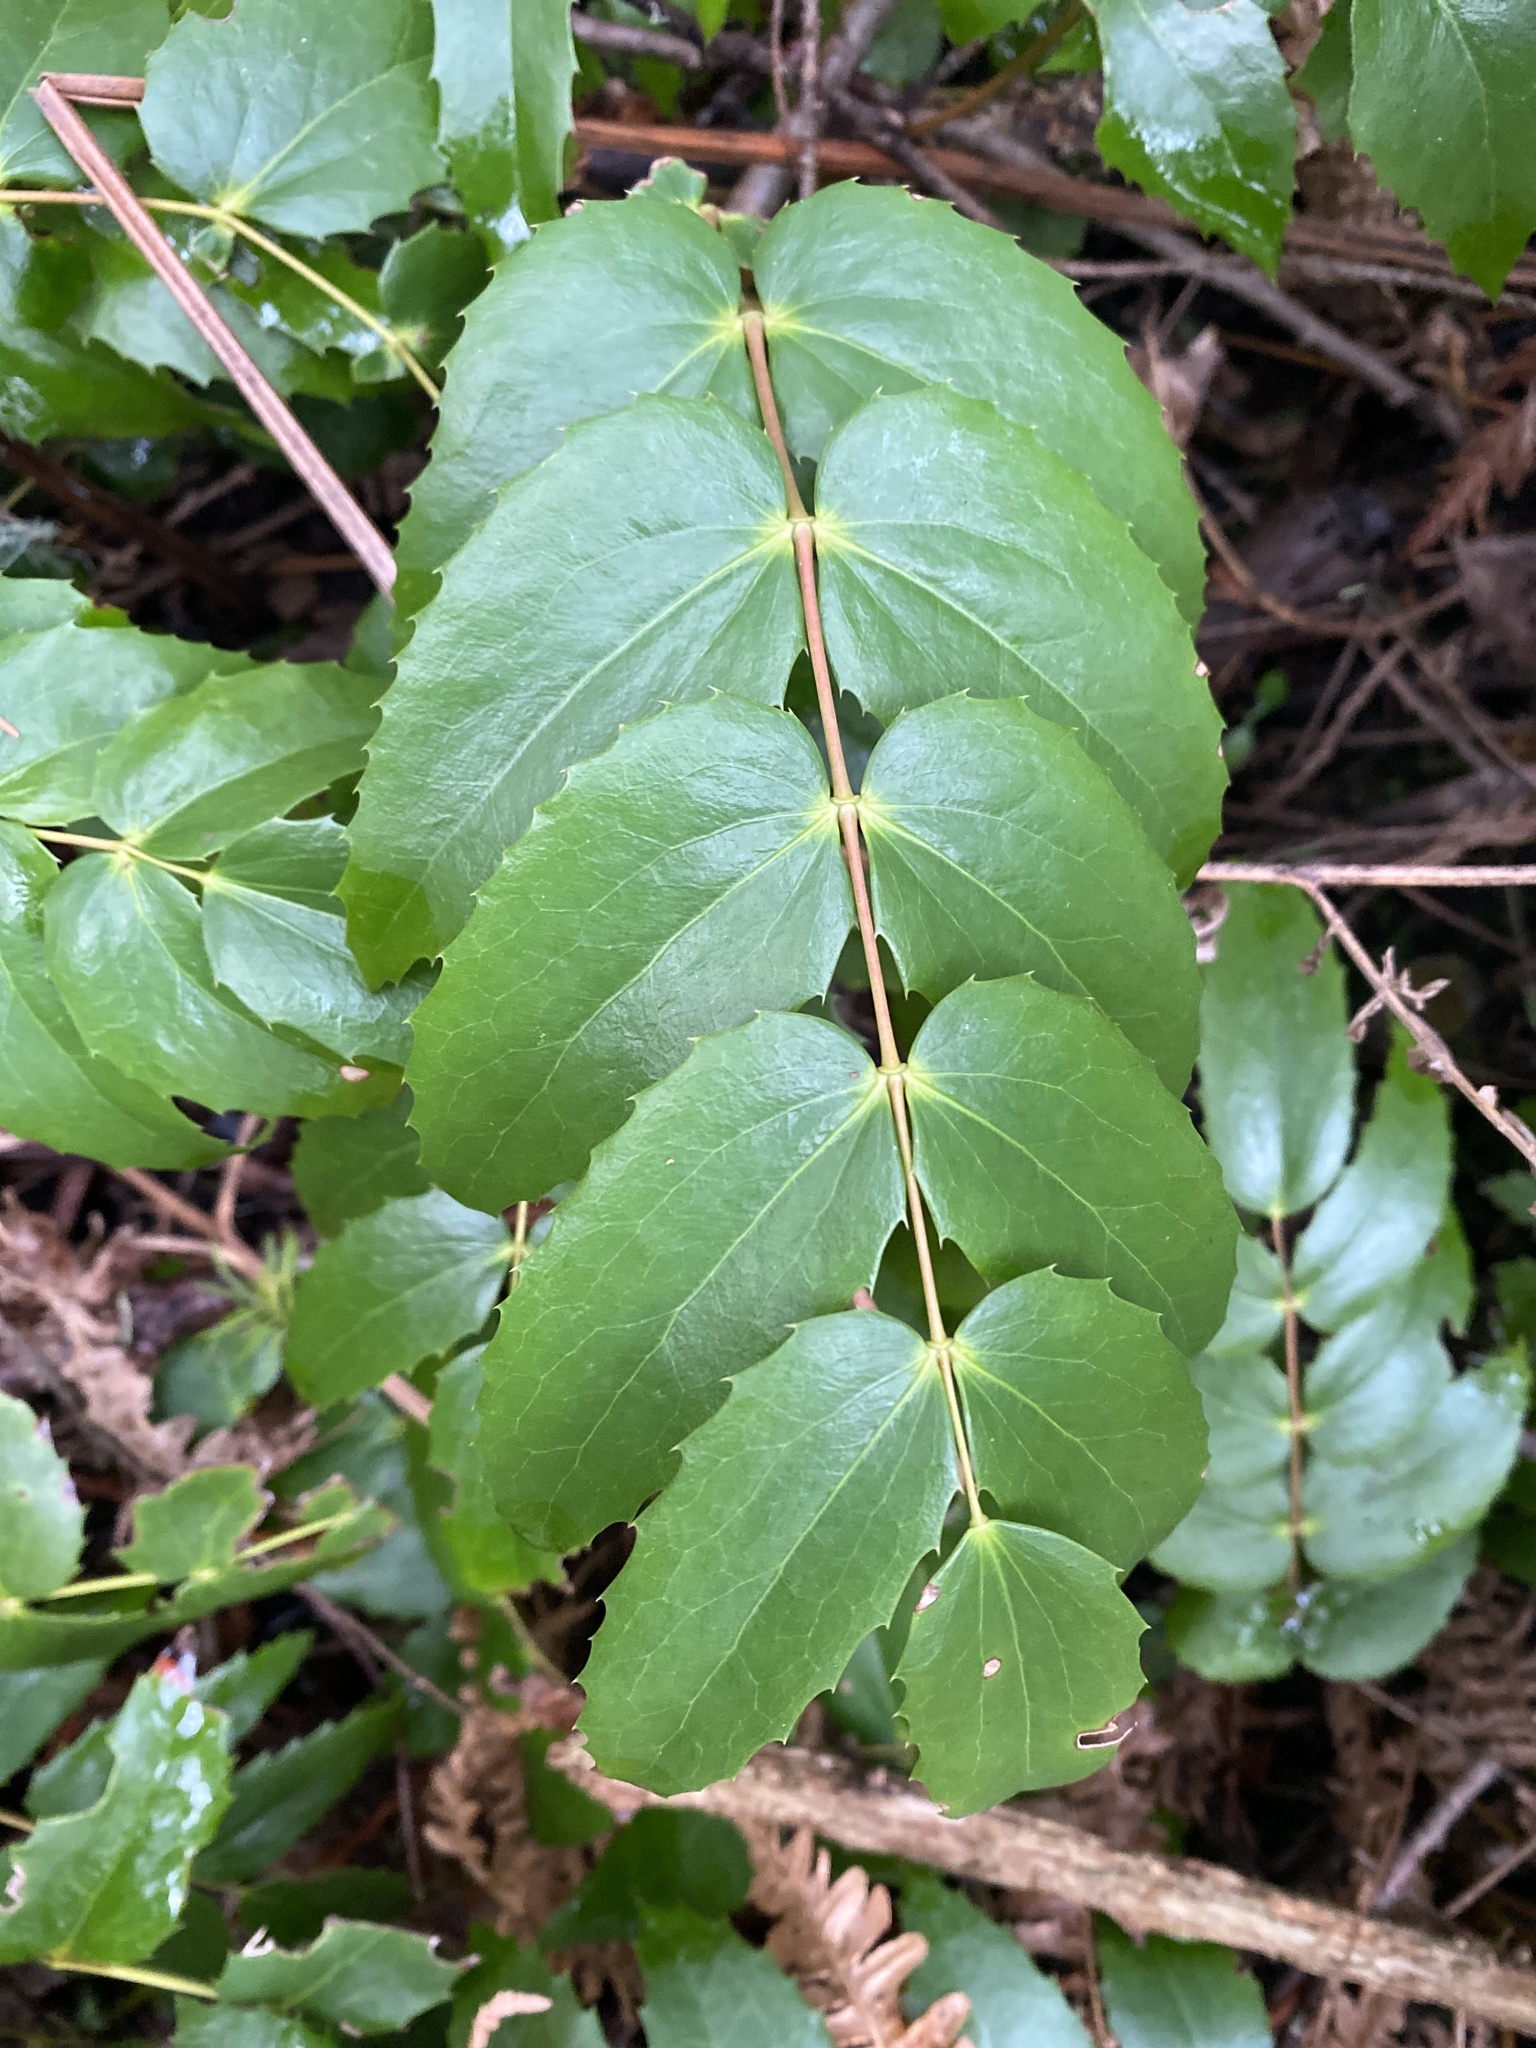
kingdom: Plantae
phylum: Tracheophyta
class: Magnoliopsida
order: Ranunculales
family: Berberidaceae
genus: Mahonia
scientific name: Mahonia nervosa
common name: Cascade oregon-grape
